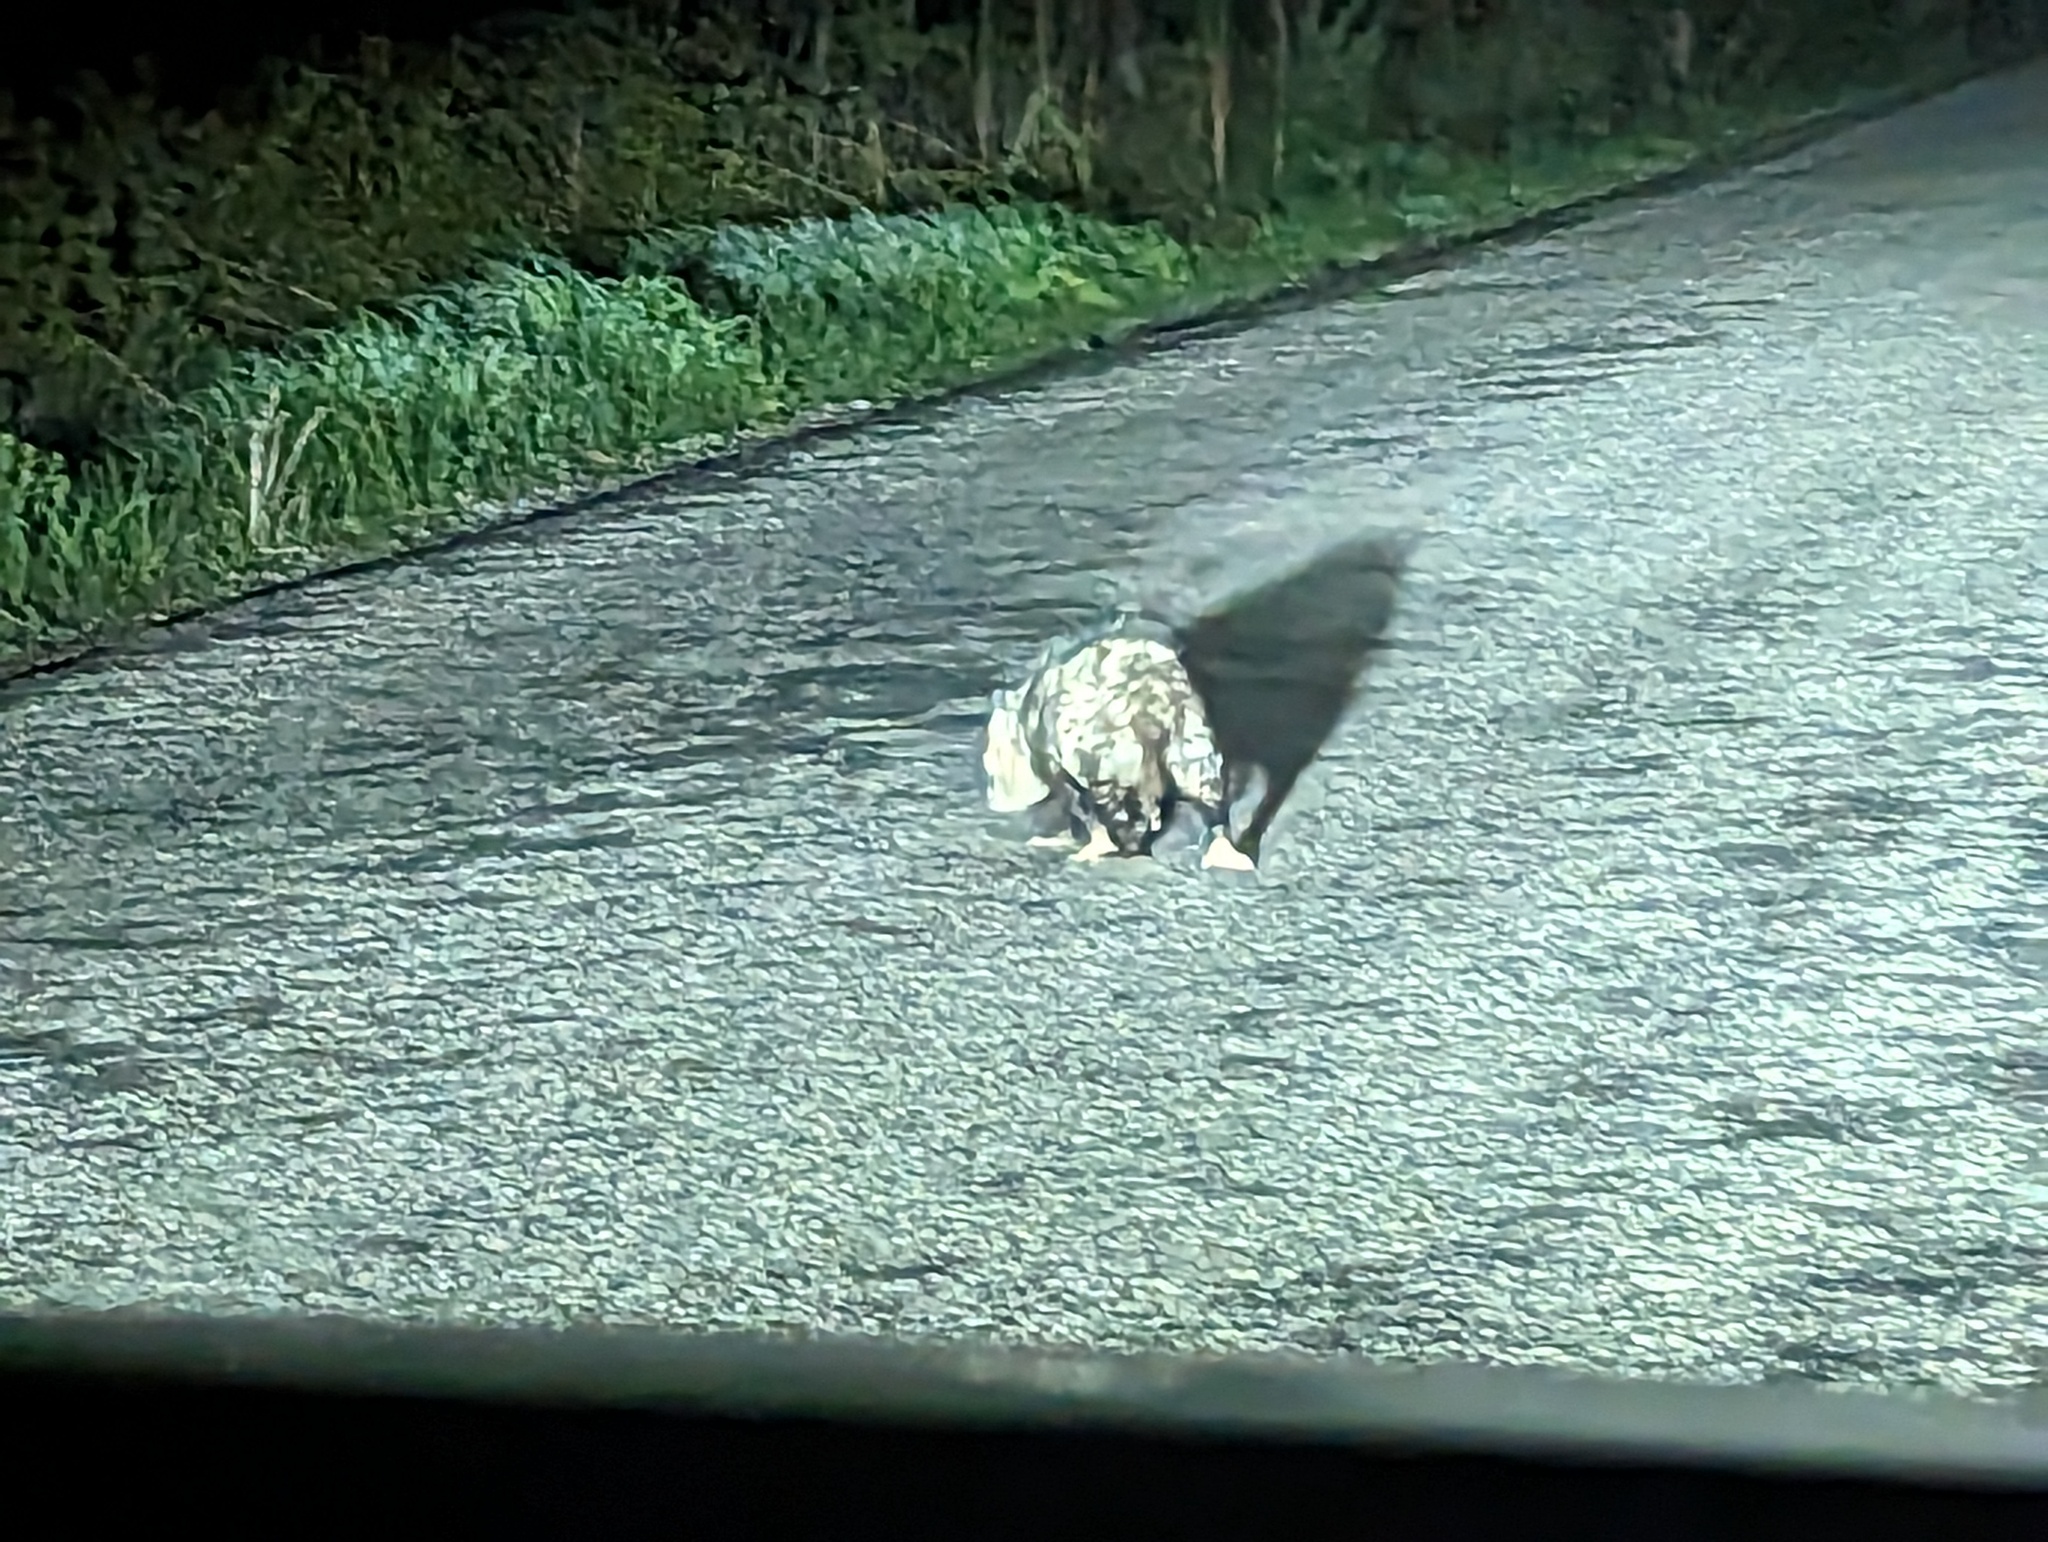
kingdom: Animalia
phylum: Chordata
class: Mammalia
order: Didelphimorphia
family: Didelphidae
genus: Didelphis
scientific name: Didelphis virginiana
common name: Virginia opossum
